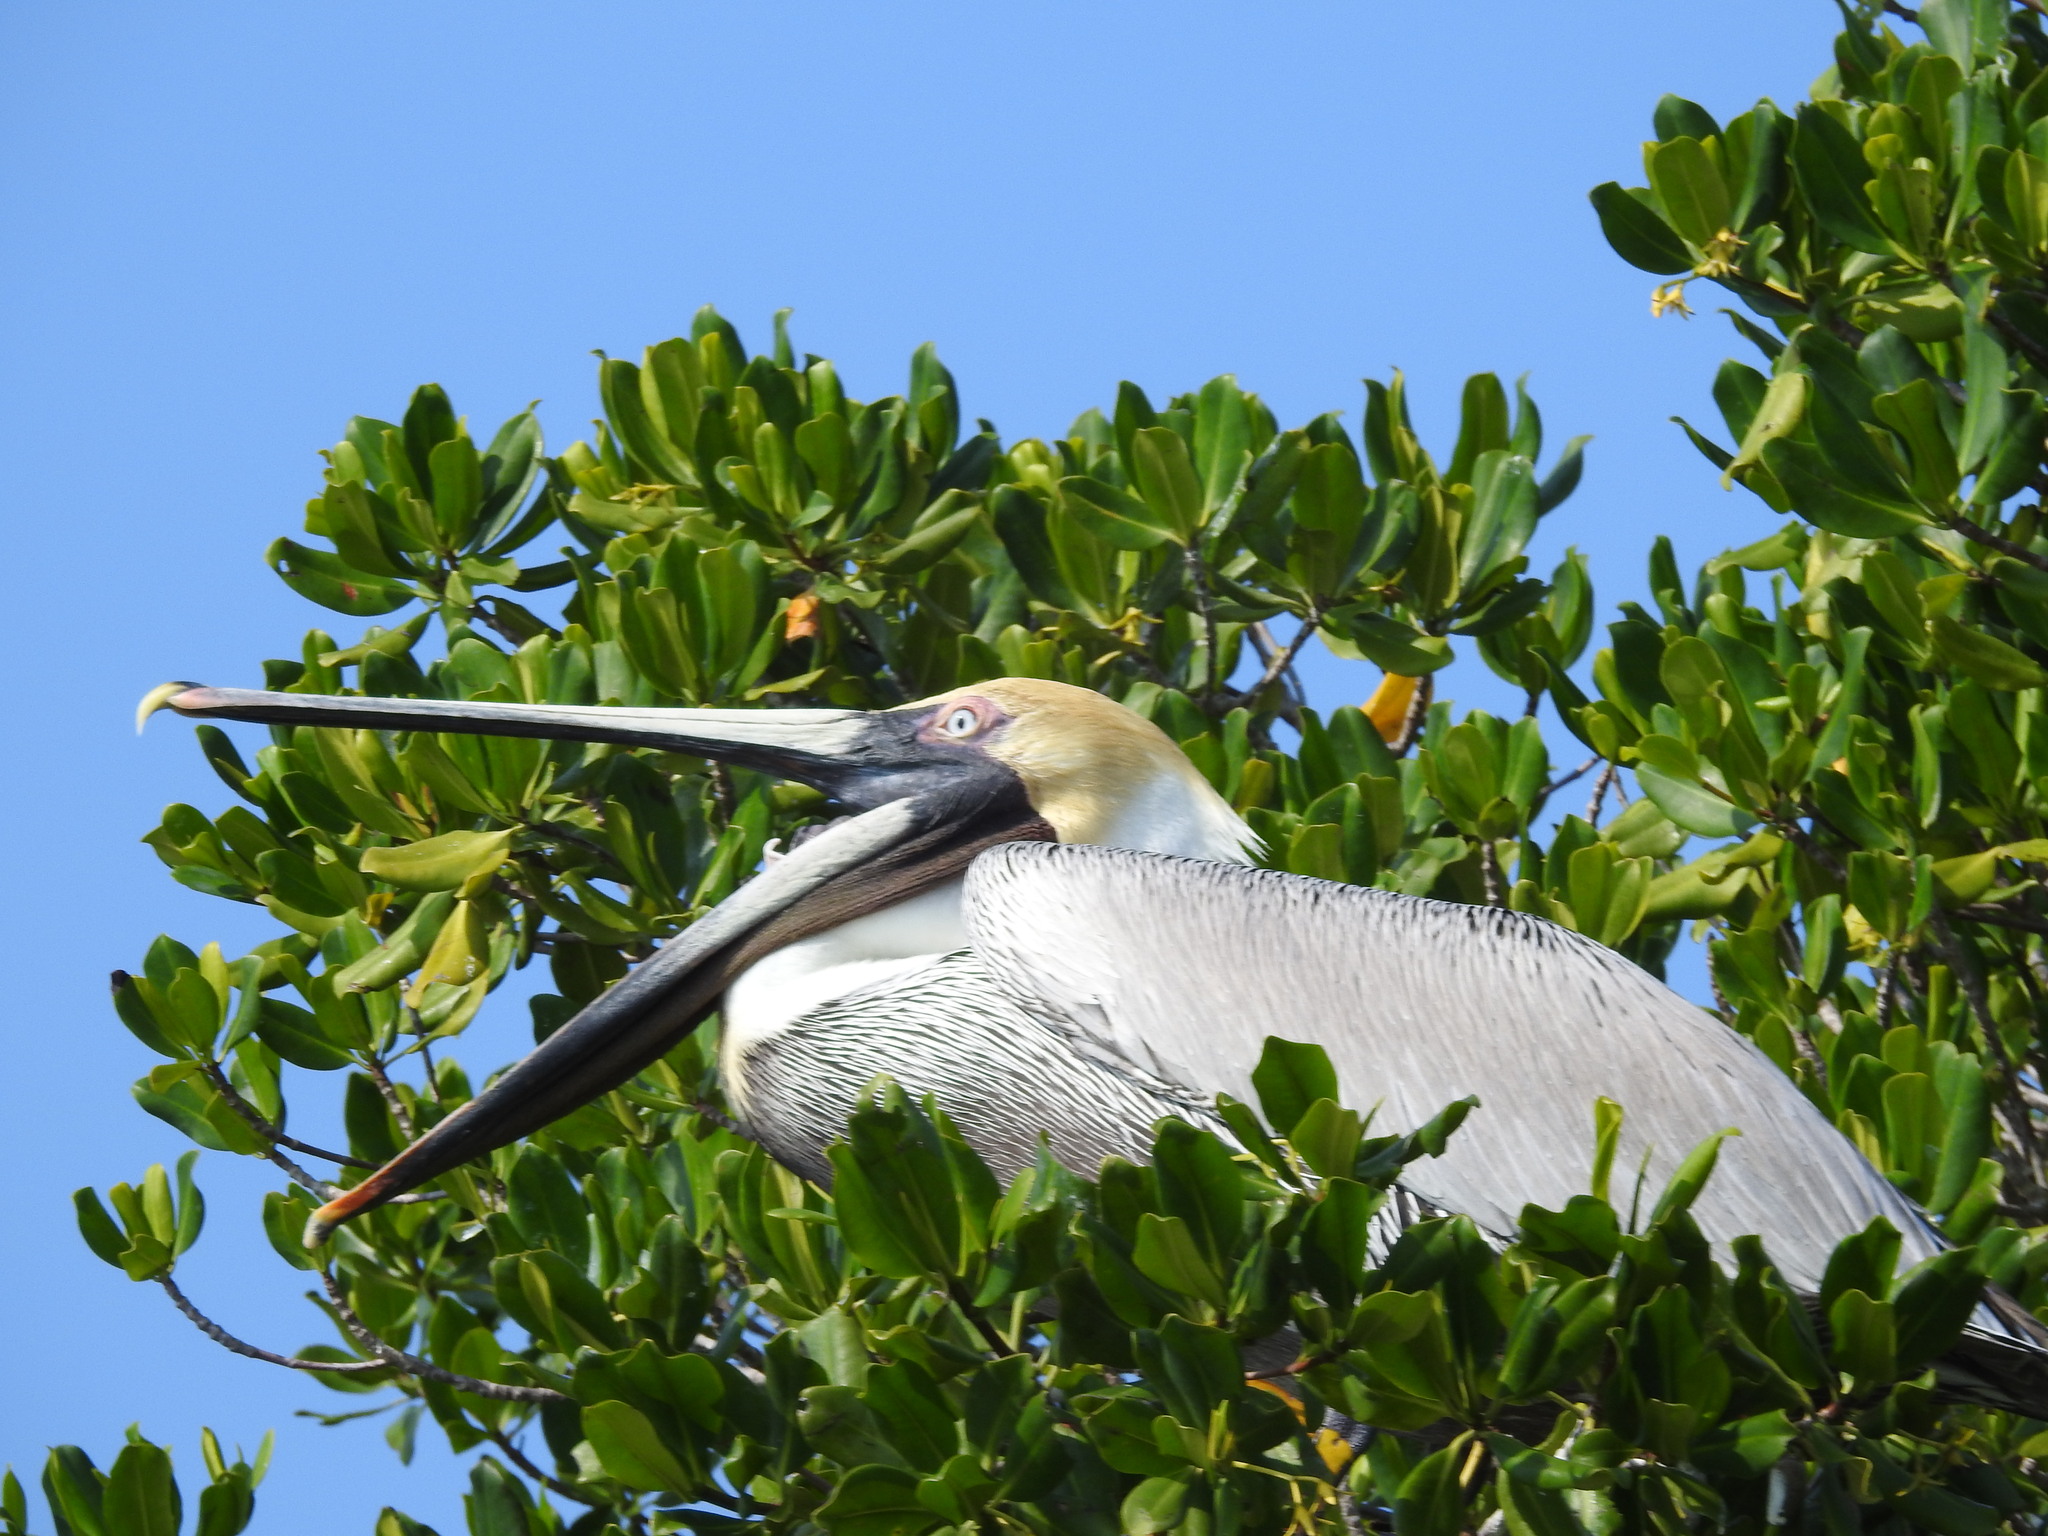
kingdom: Animalia
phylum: Chordata
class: Aves
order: Pelecaniformes
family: Pelecanidae
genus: Pelecanus
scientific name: Pelecanus occidentalis
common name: Brown pelican
